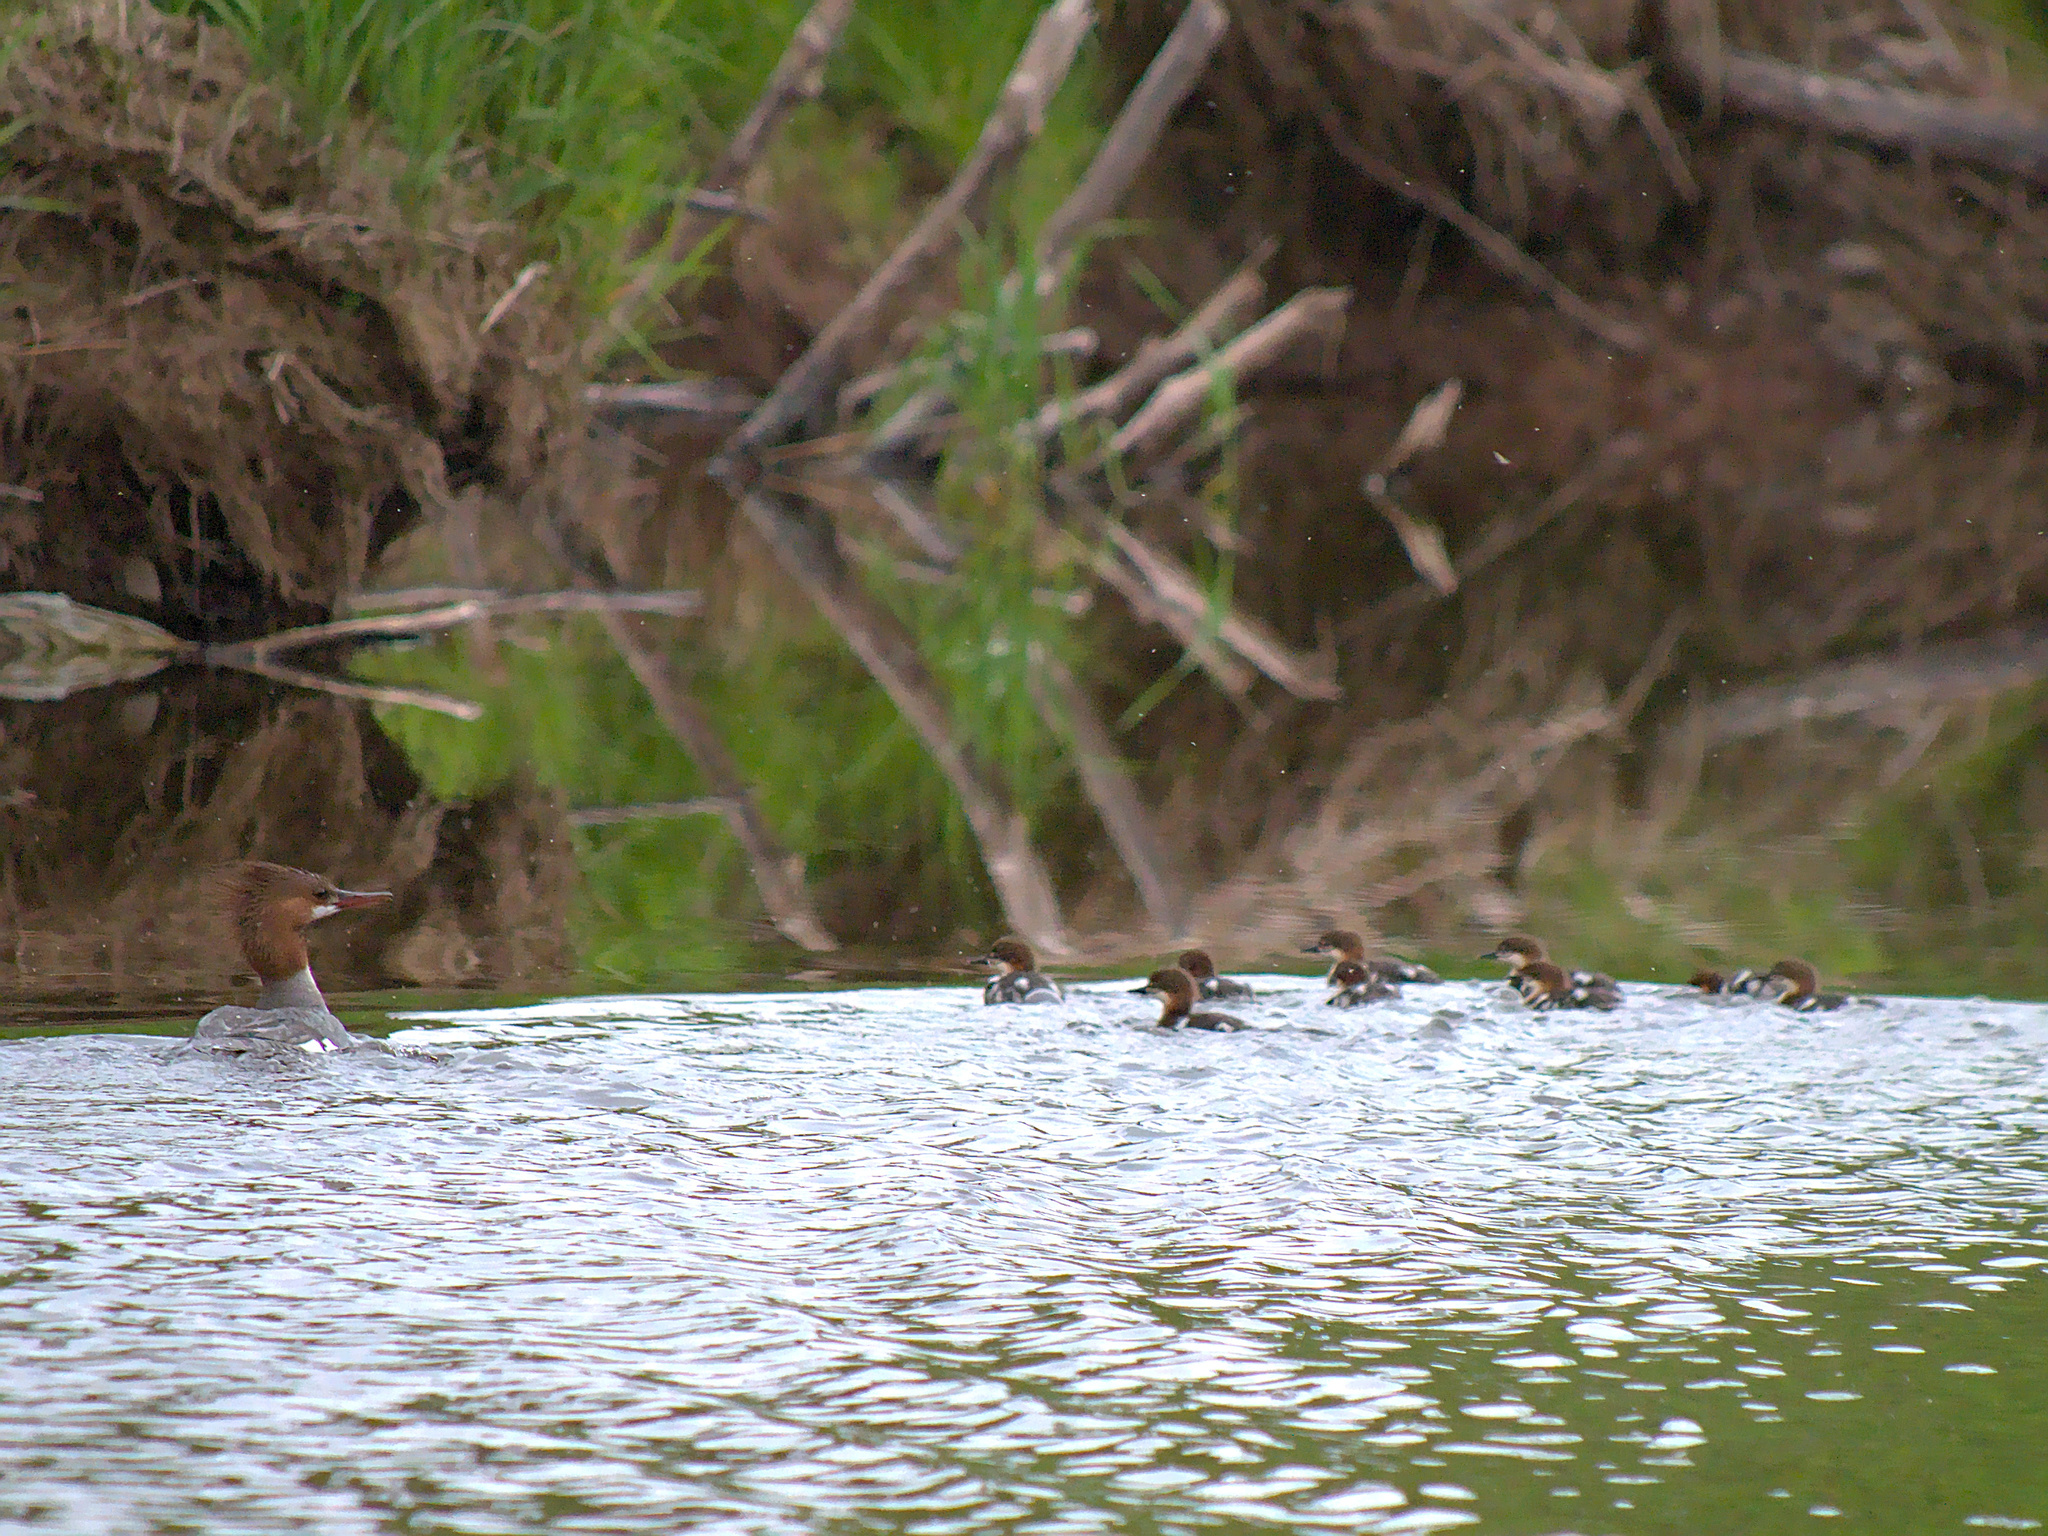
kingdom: Animalia
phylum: Chordata
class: Aves
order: Anseriformes
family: Anatidae
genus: Mergus
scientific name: Mergus merganser
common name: Common merganser
